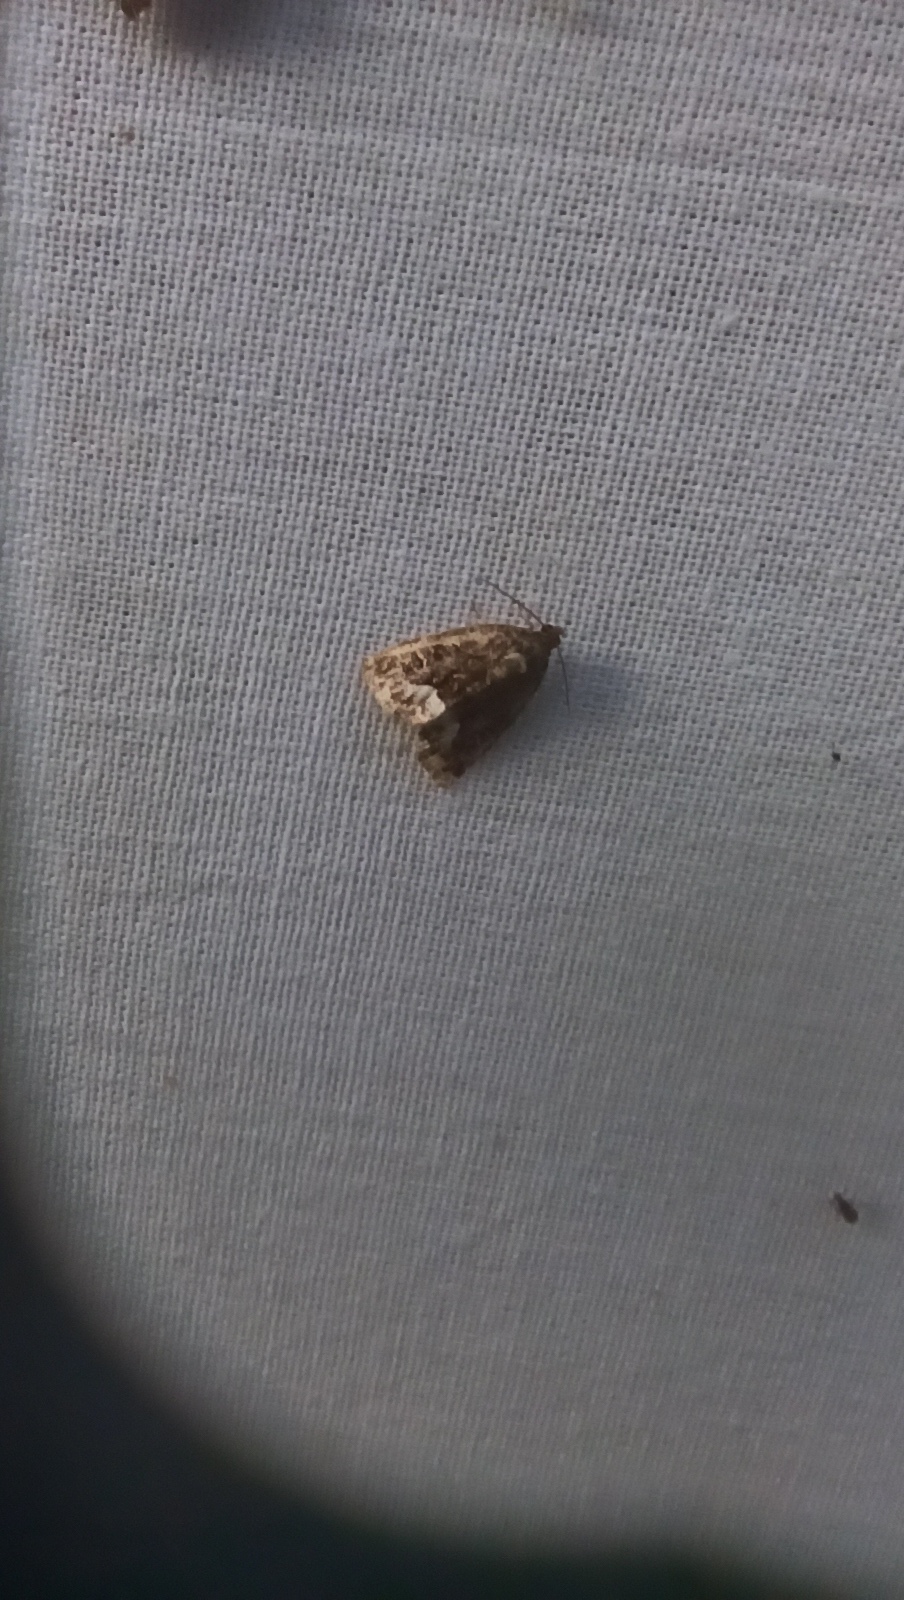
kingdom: Animalia
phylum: Arthropoda
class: Insecta
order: Lepidoptera
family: Noctuidae
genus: Deltote
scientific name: Deltote pygarga
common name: Marbled white spot
